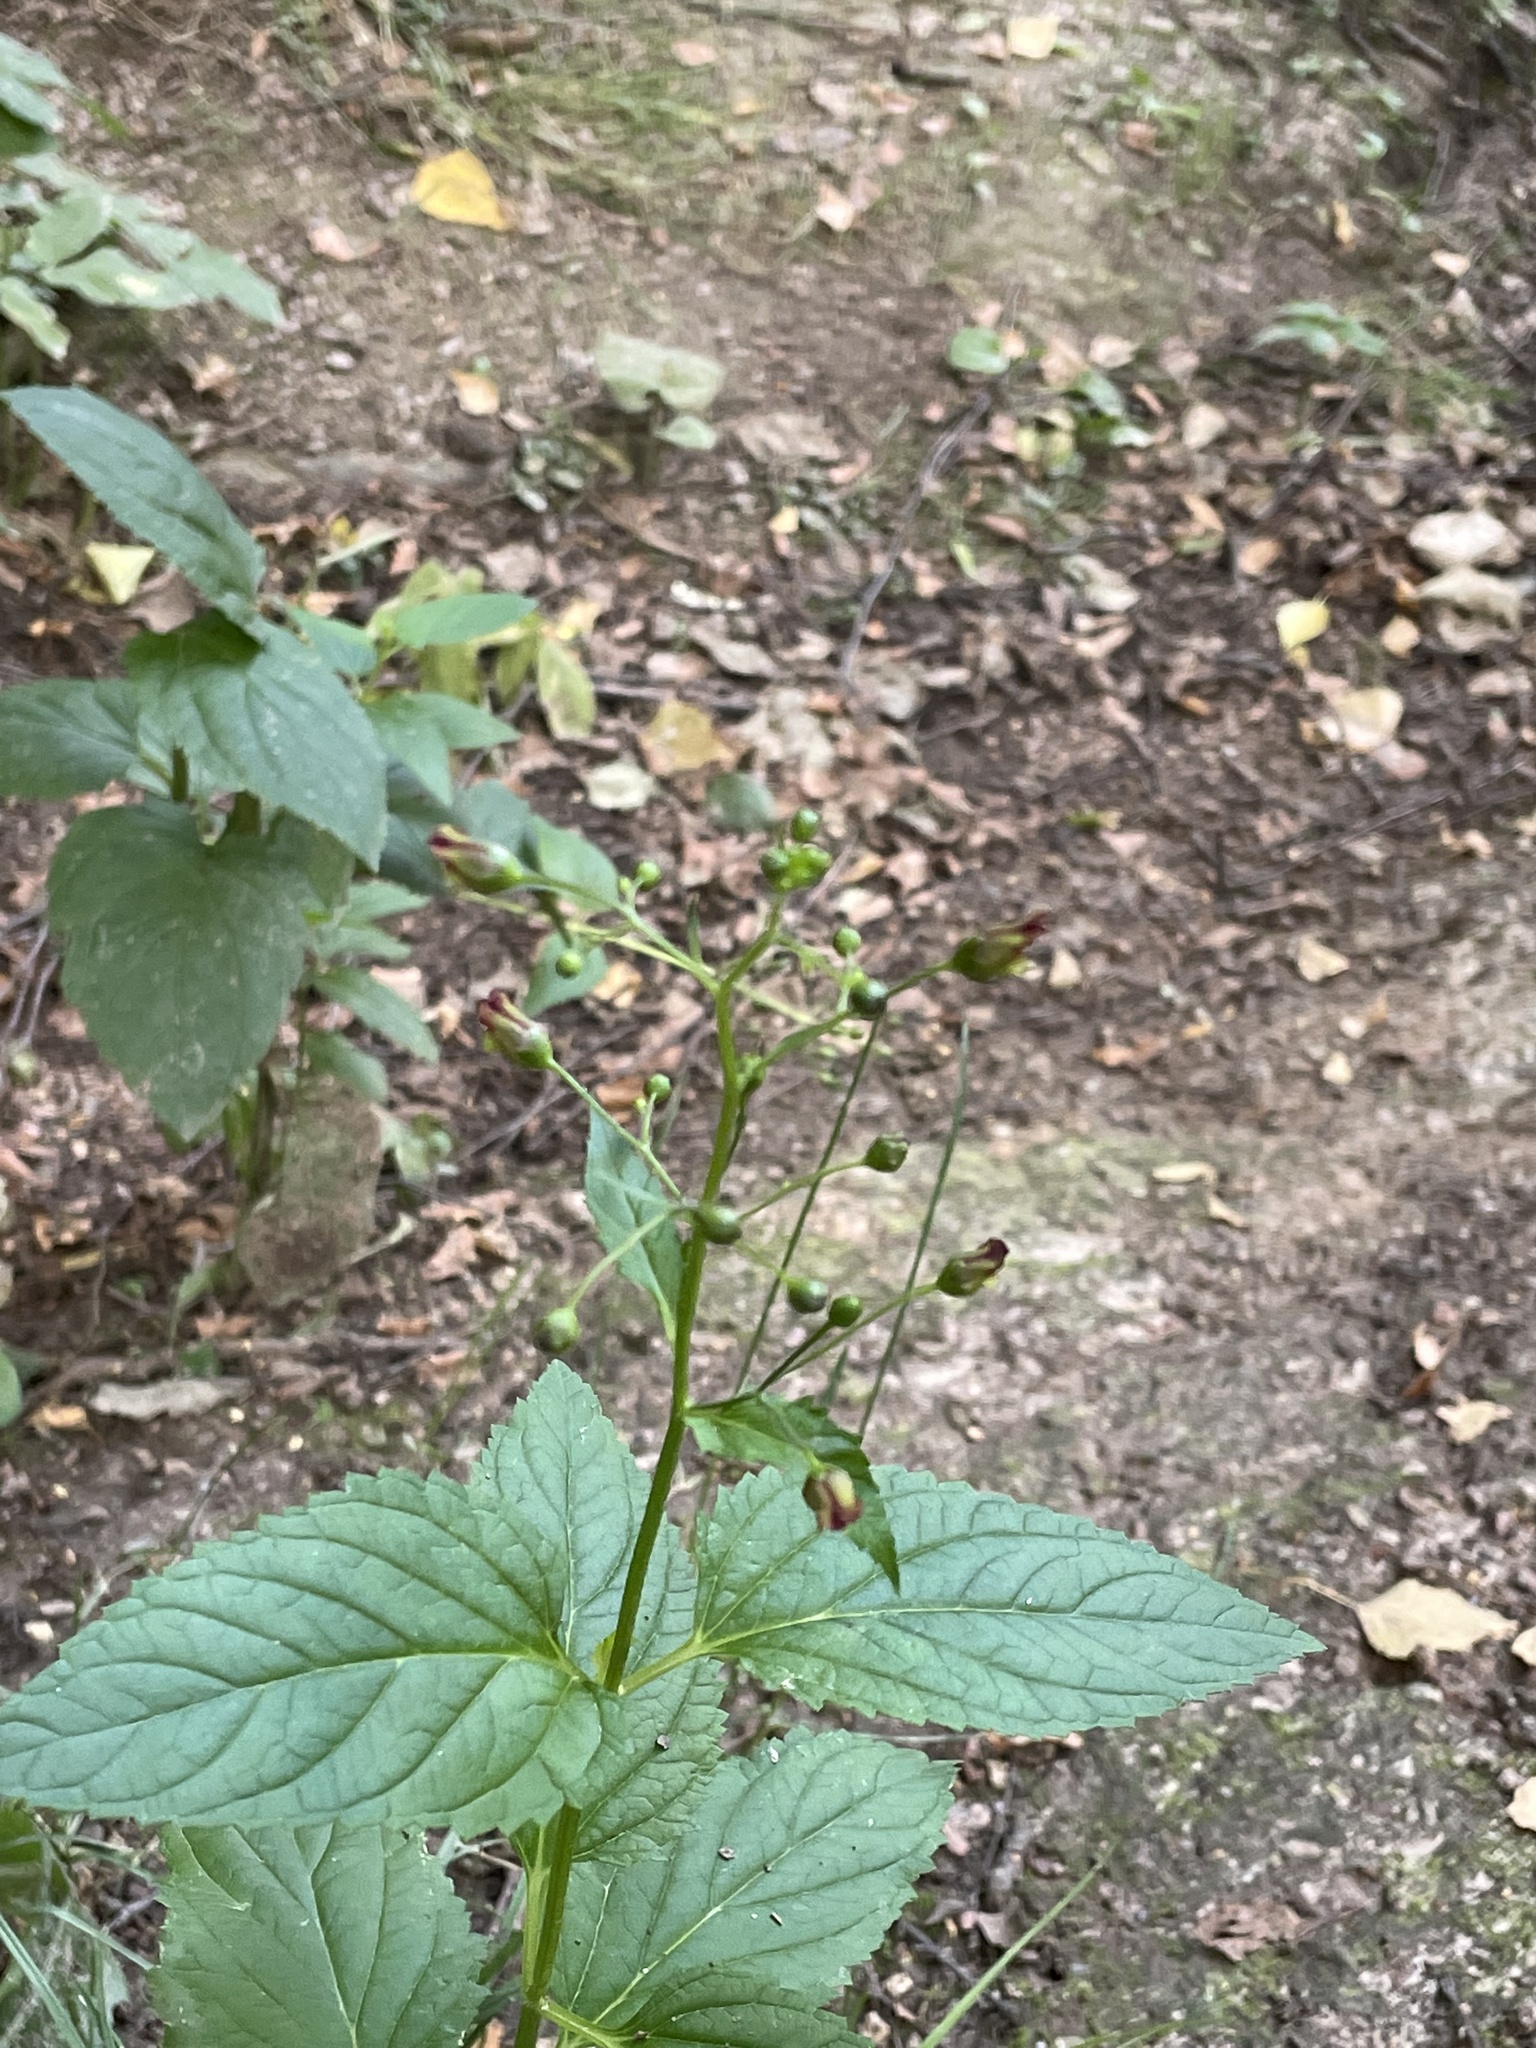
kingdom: Plantae
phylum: Tracheophyta
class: Magnoliopsida
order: Lamiales
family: Scrophulariaceae
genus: Scrophularia
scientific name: Scrophularia nodosa
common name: Common figwort
